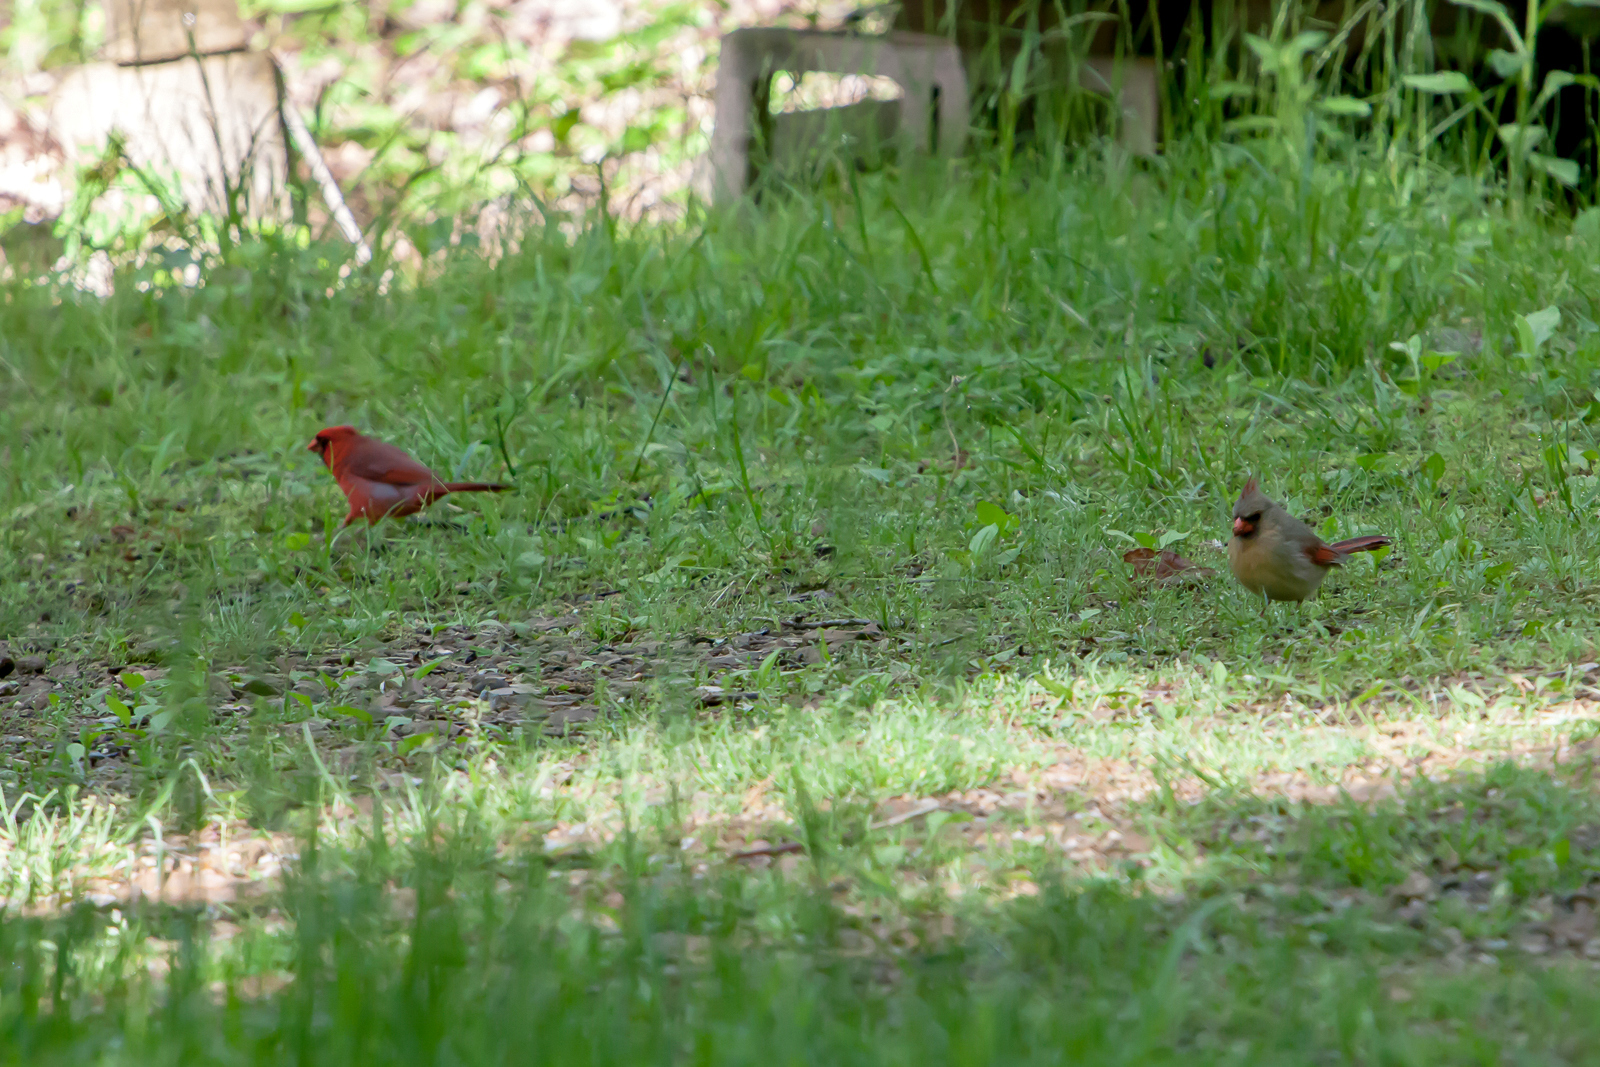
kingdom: Animalia
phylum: Chordata
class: Aves
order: Passeriformes
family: Cardinalidae
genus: Cardinalis
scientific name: Cardinalis cardinalis
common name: Northern cardinal
